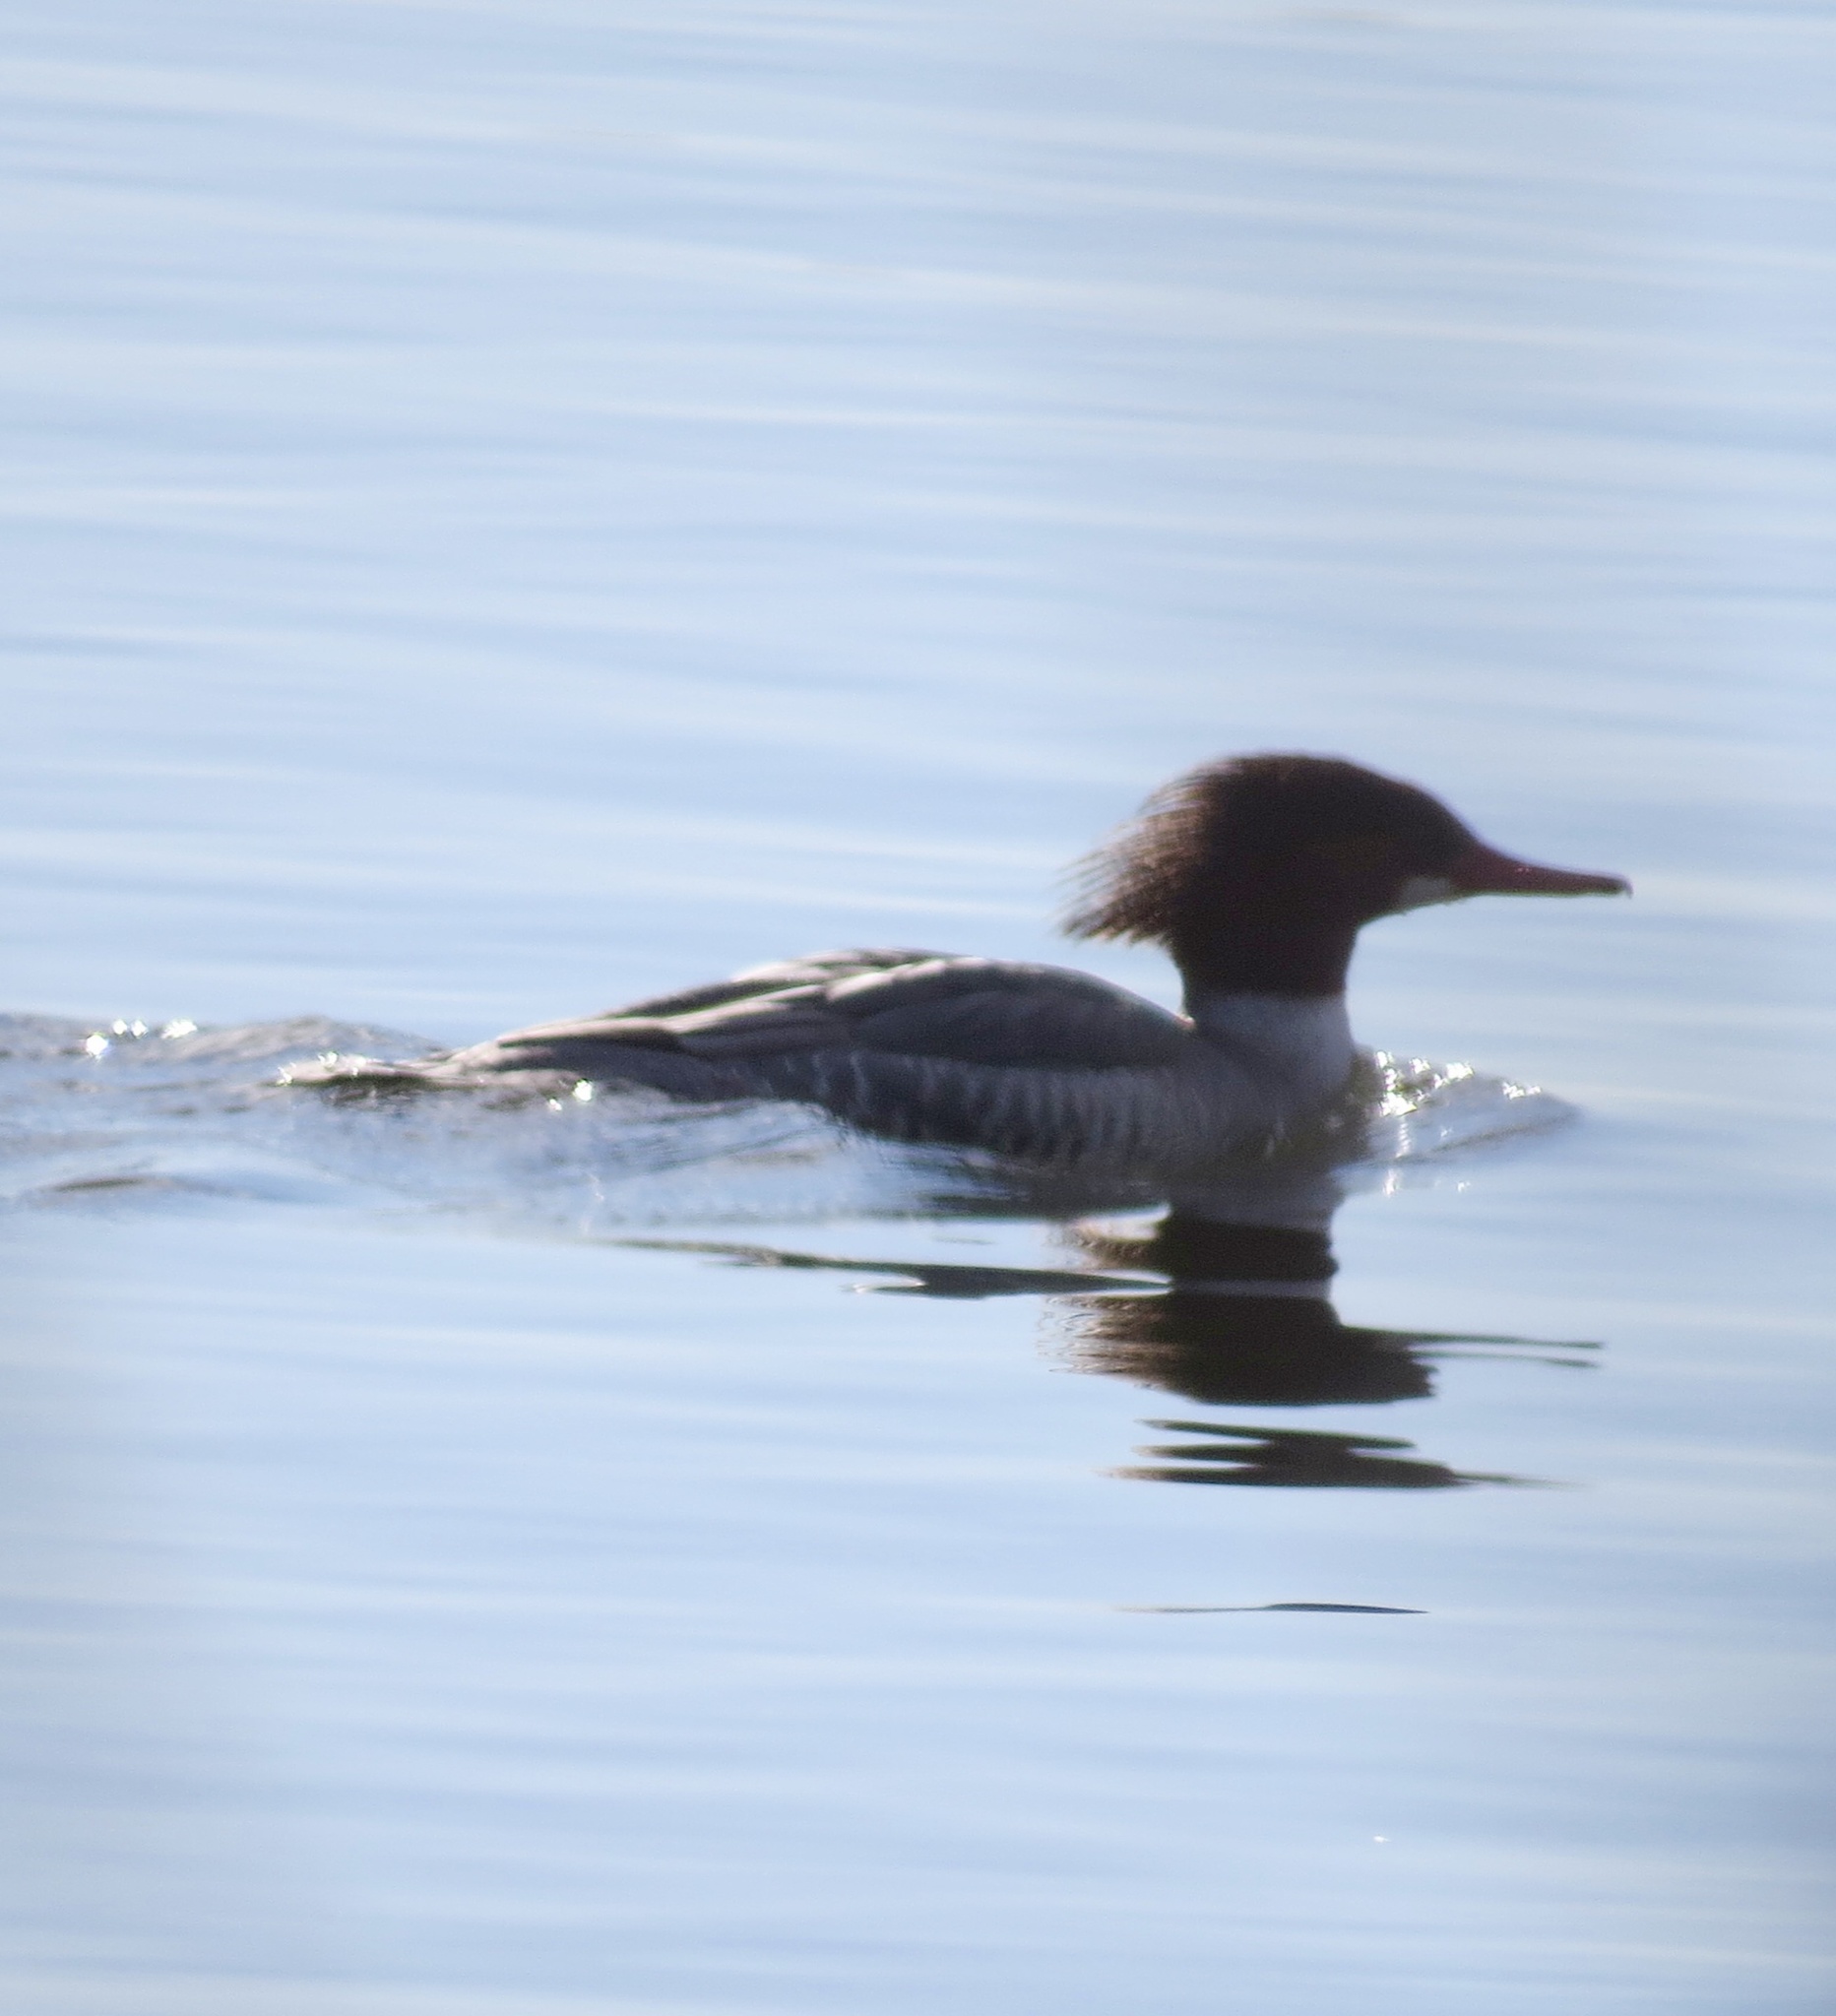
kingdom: Animalia
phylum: Chordata
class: Aves
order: Anseriformes
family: Anatidae
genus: Mergus
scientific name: Mergus merganser
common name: Common merganser
